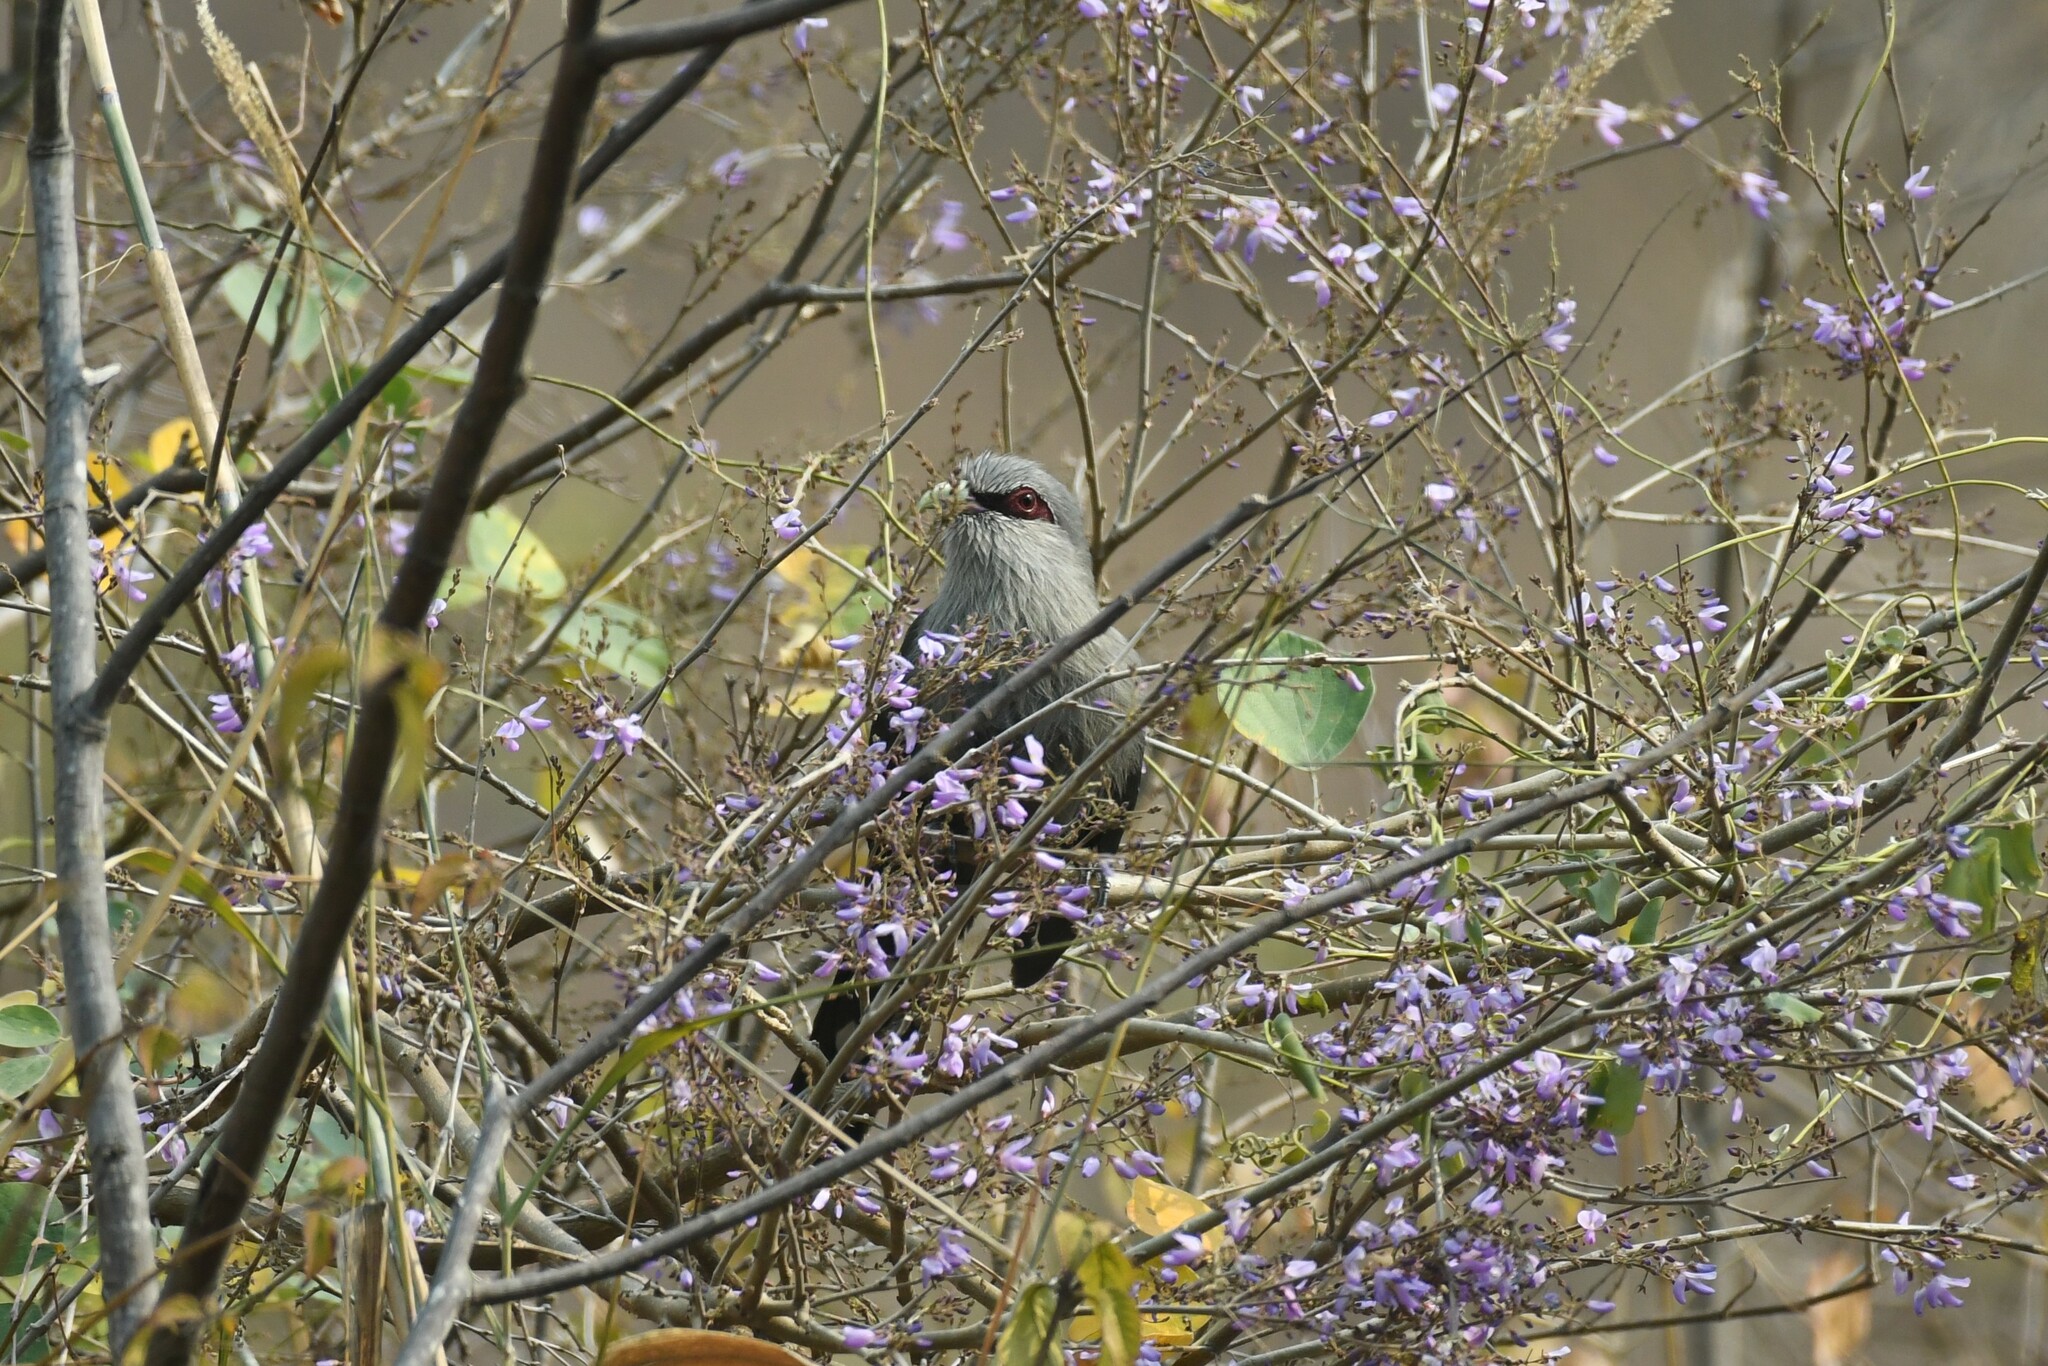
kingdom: Animalia
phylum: Chordata
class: Aves
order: Cuculiformes
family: Cuculidae
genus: Rhopodytes
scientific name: Rhopodytes tristis
